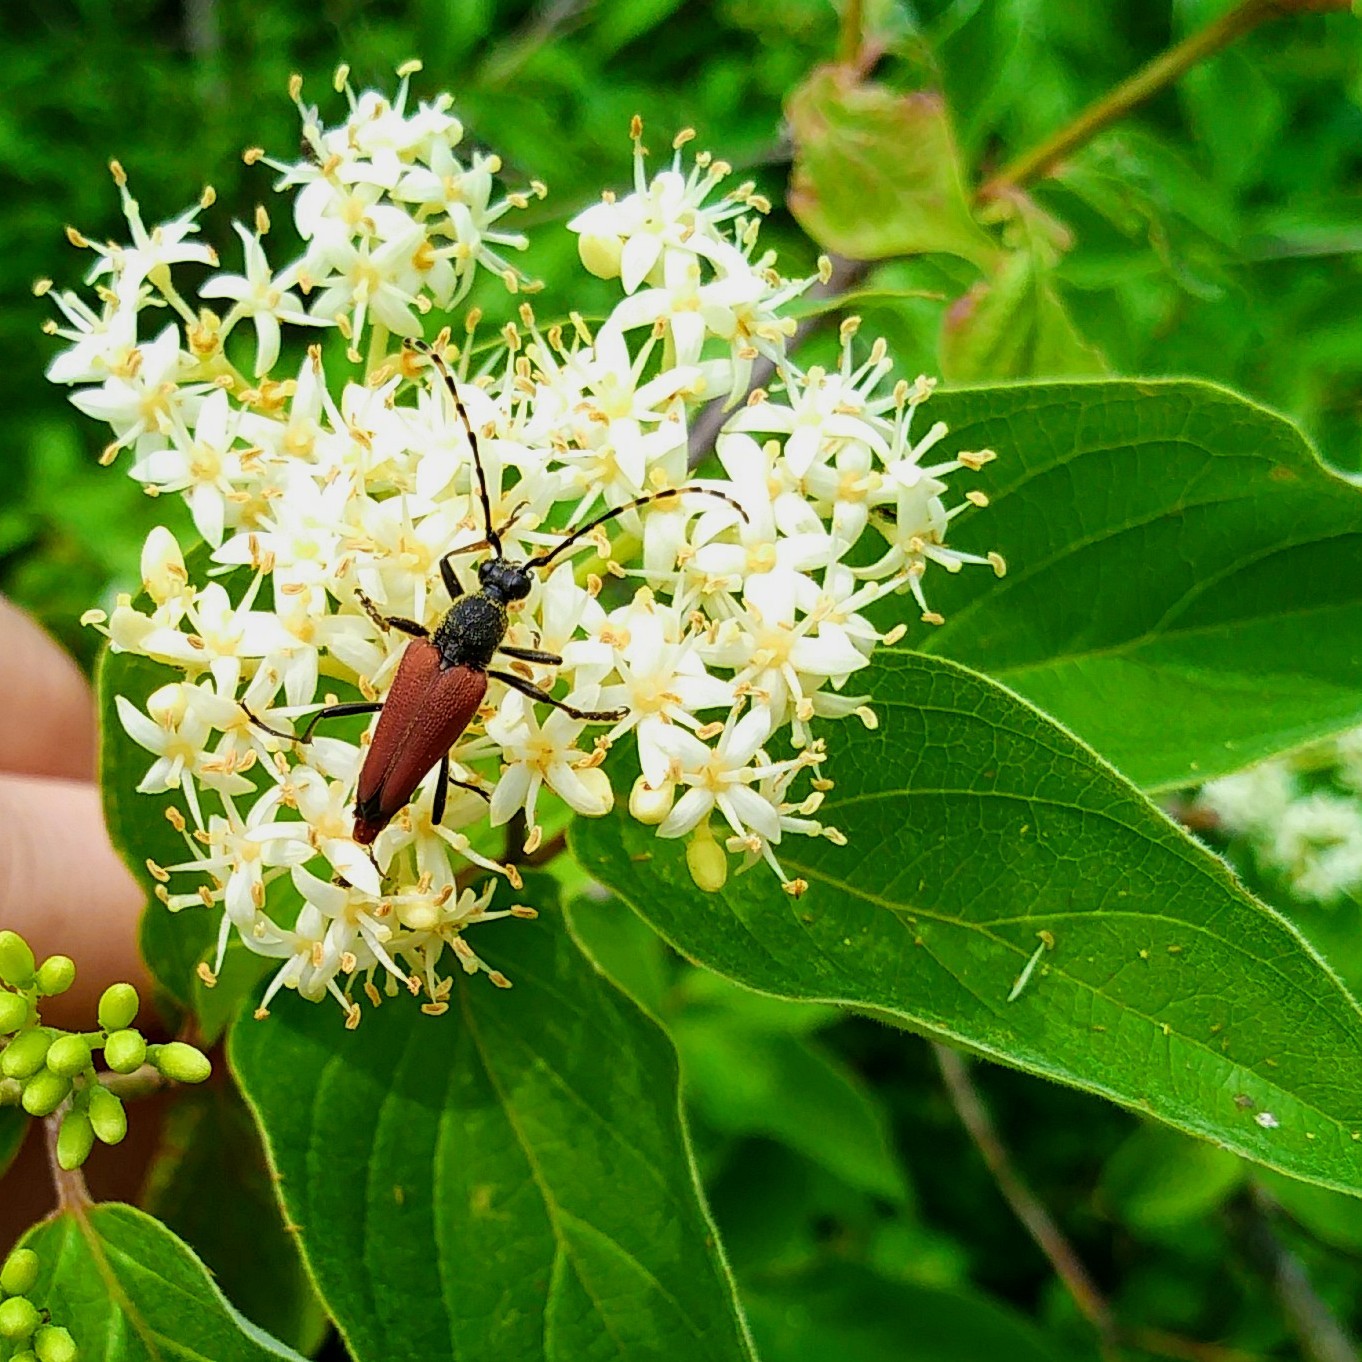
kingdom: Animalia
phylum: Arthropoda
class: Insecta
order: Coleoptera
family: Cerambycidae
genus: Brachyleptura
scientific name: Brachyleptura rubrica
